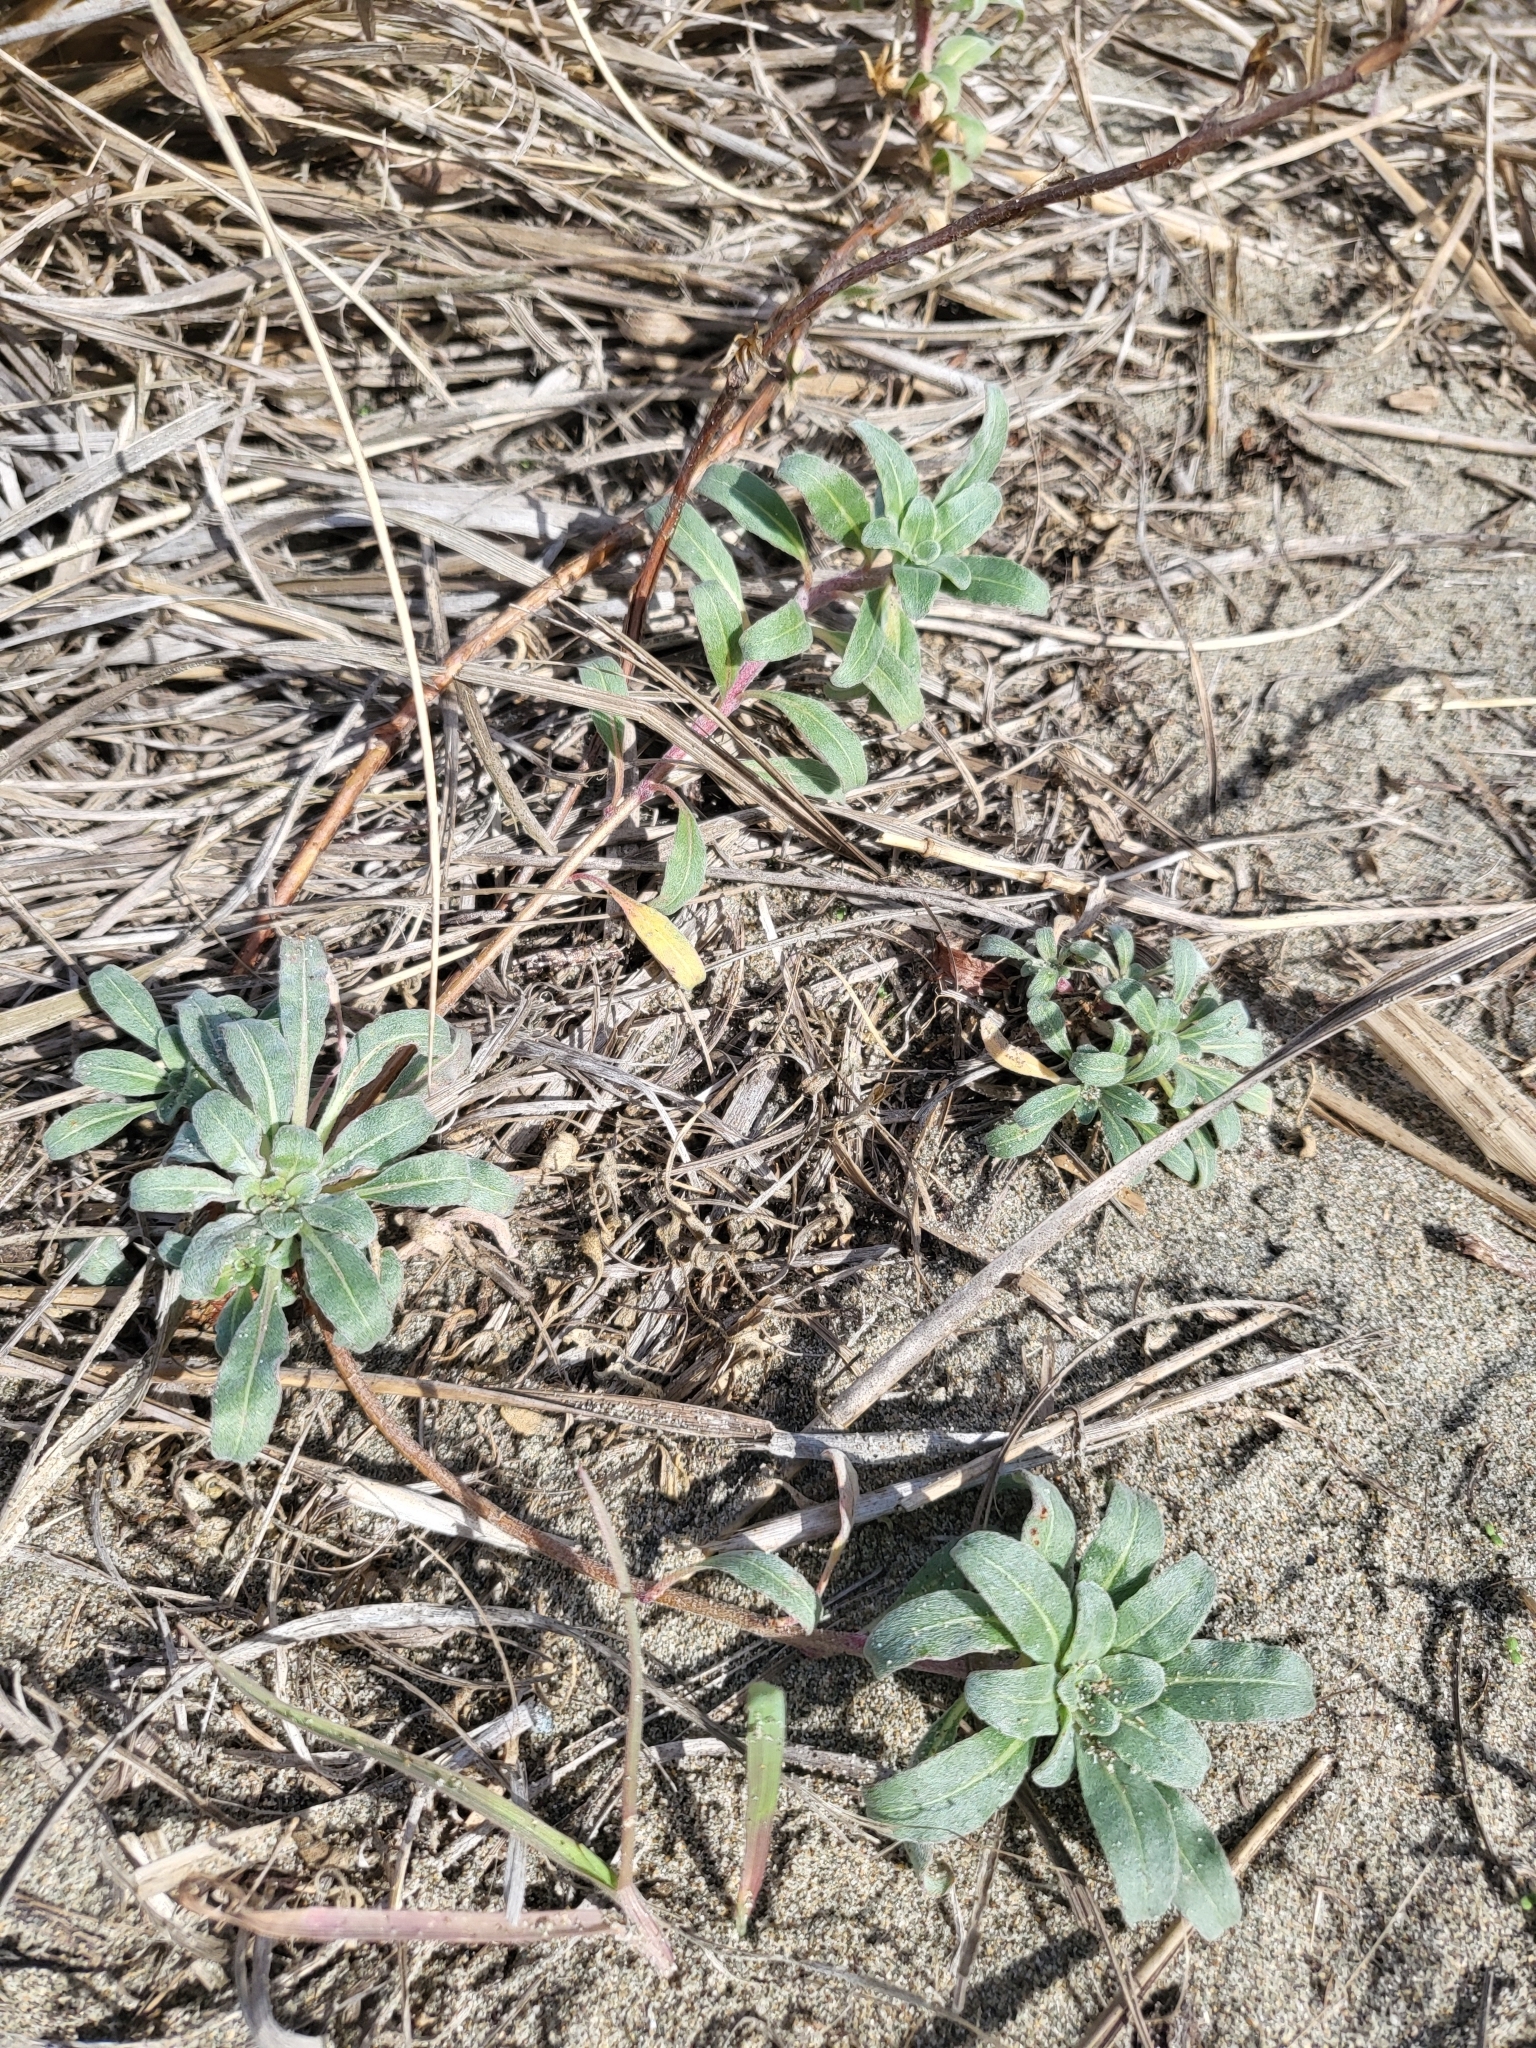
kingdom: Plantae
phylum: Tracheophyta
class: Magnoliopsida
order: Myrtales
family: Onagraceae
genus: Camissoniopsis
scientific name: Camissoniopsis cheiranthifolia
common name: Beach suncup
